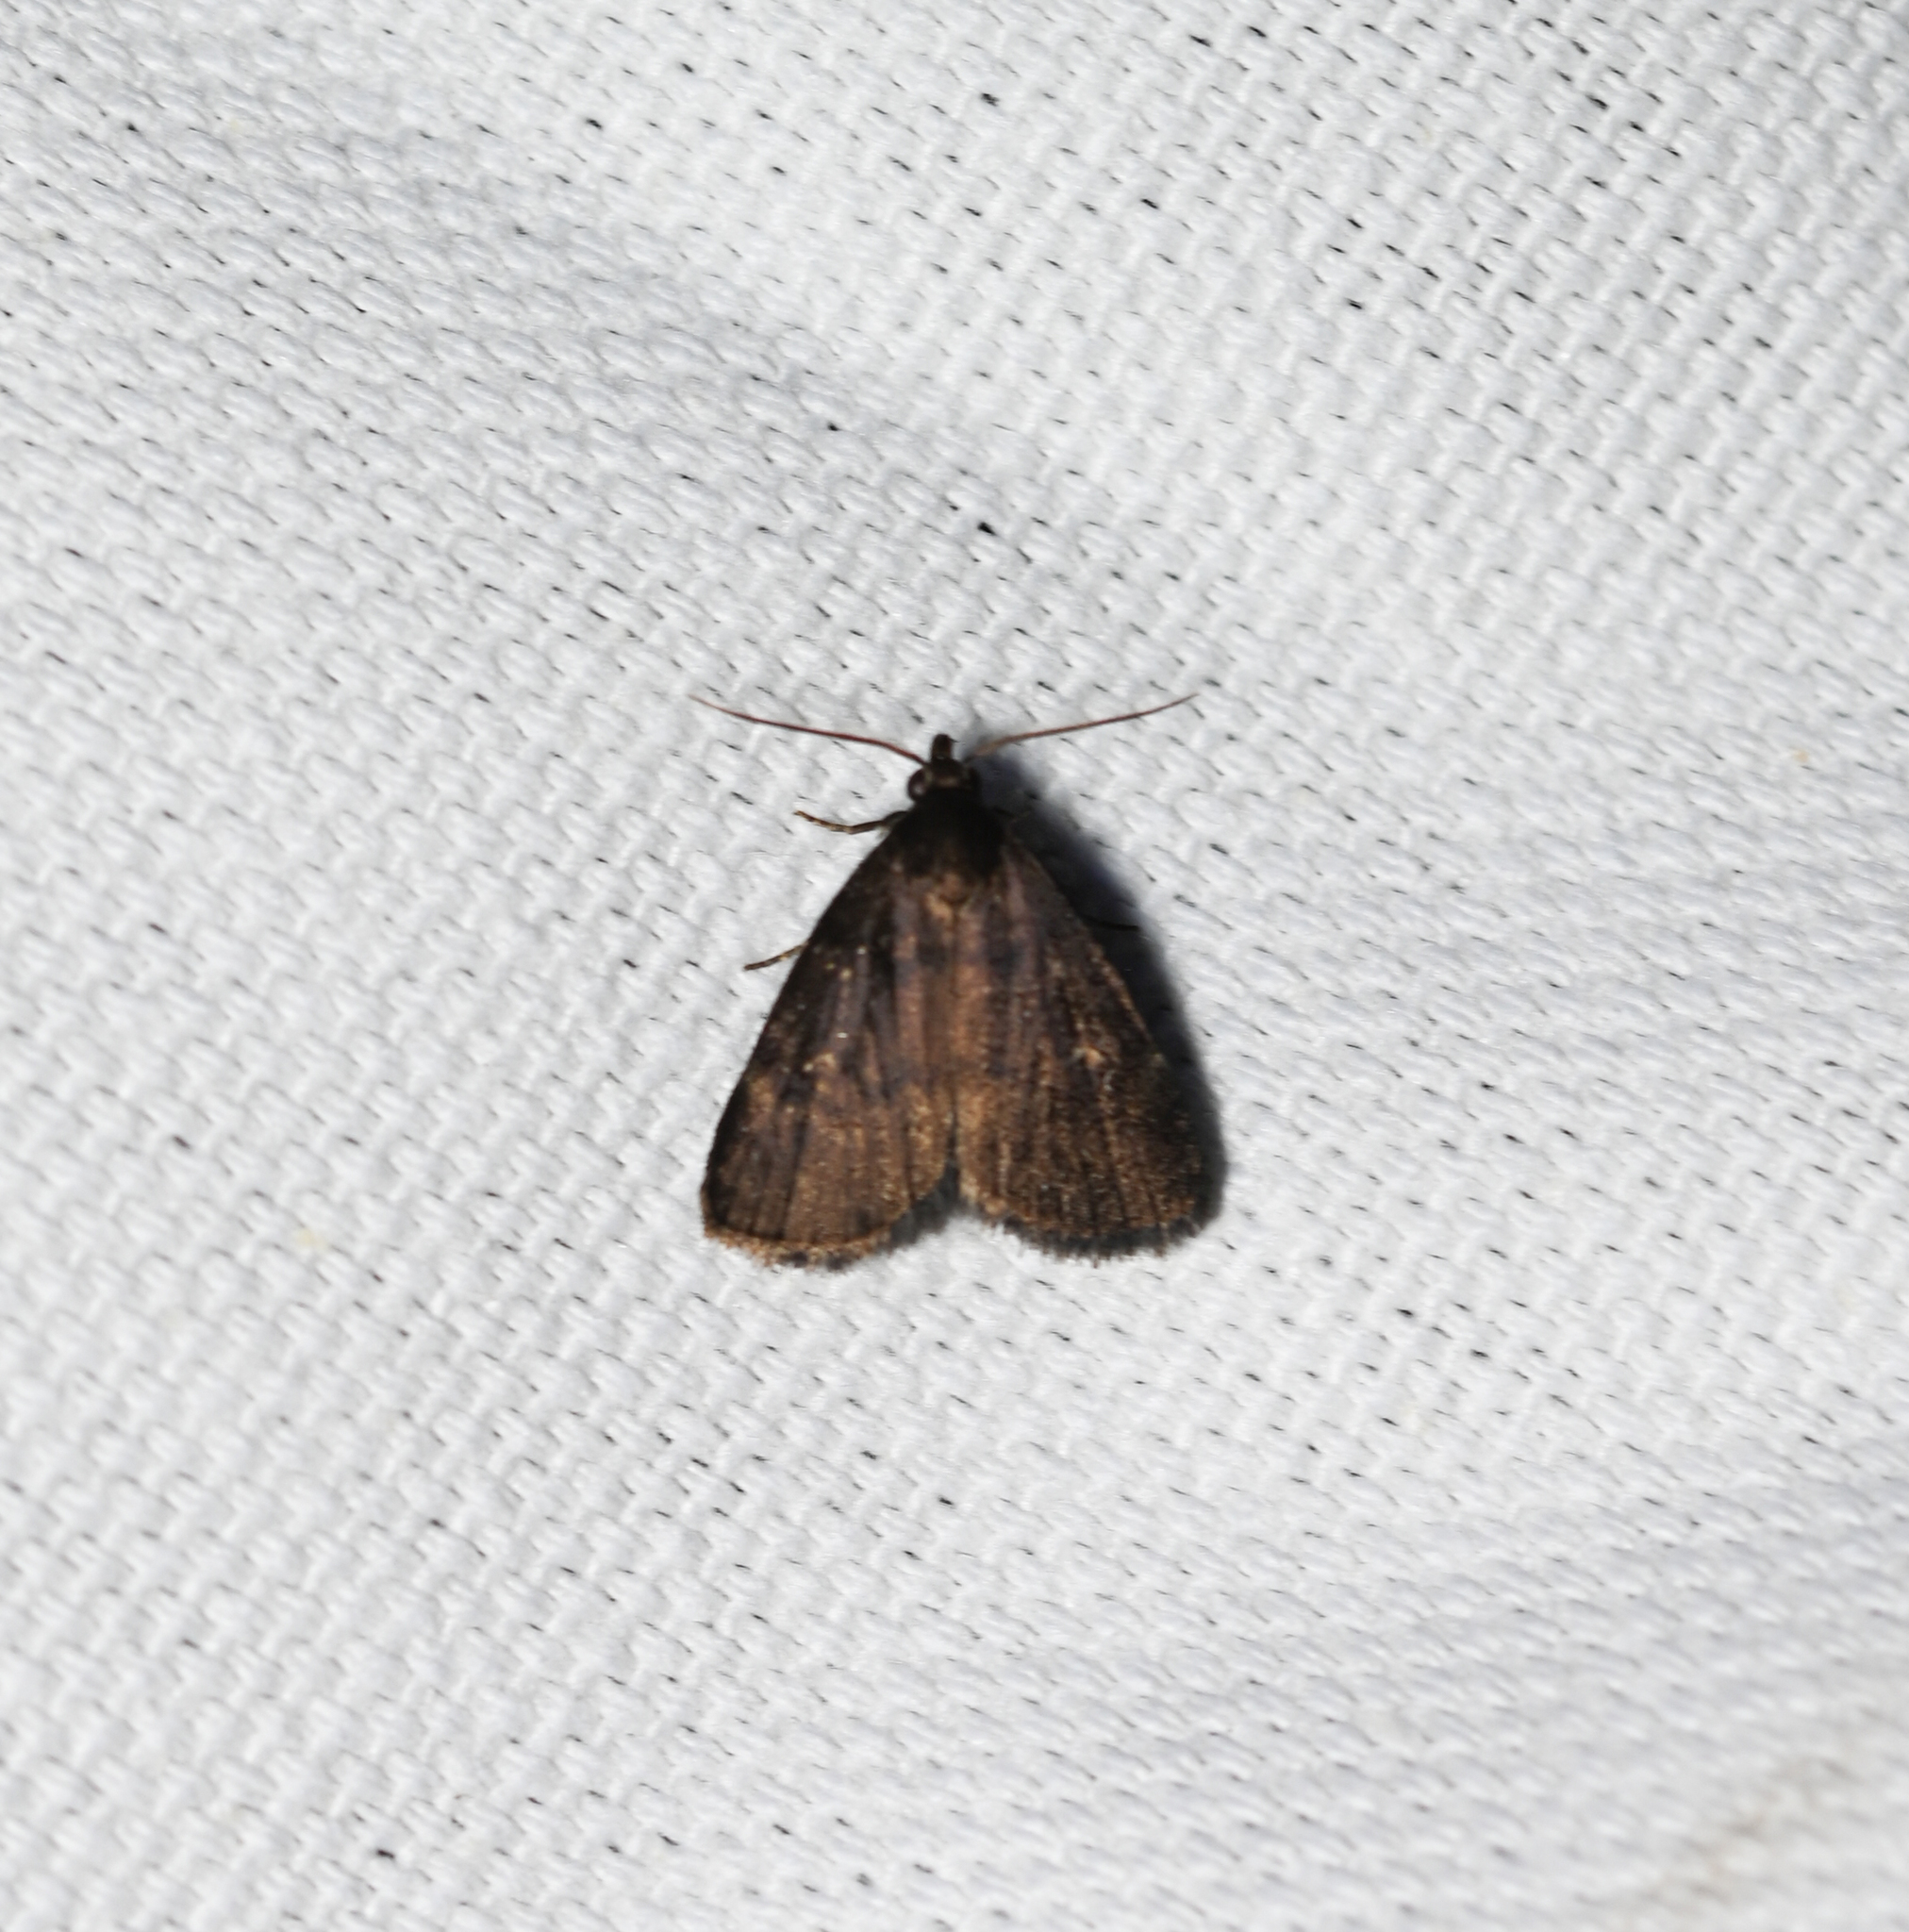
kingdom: Animalia
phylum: Arthropoda
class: Insecta
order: Lepidoptera
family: Erebidae
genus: Idia
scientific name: Idia rotundalis
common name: Rotund idia moth
